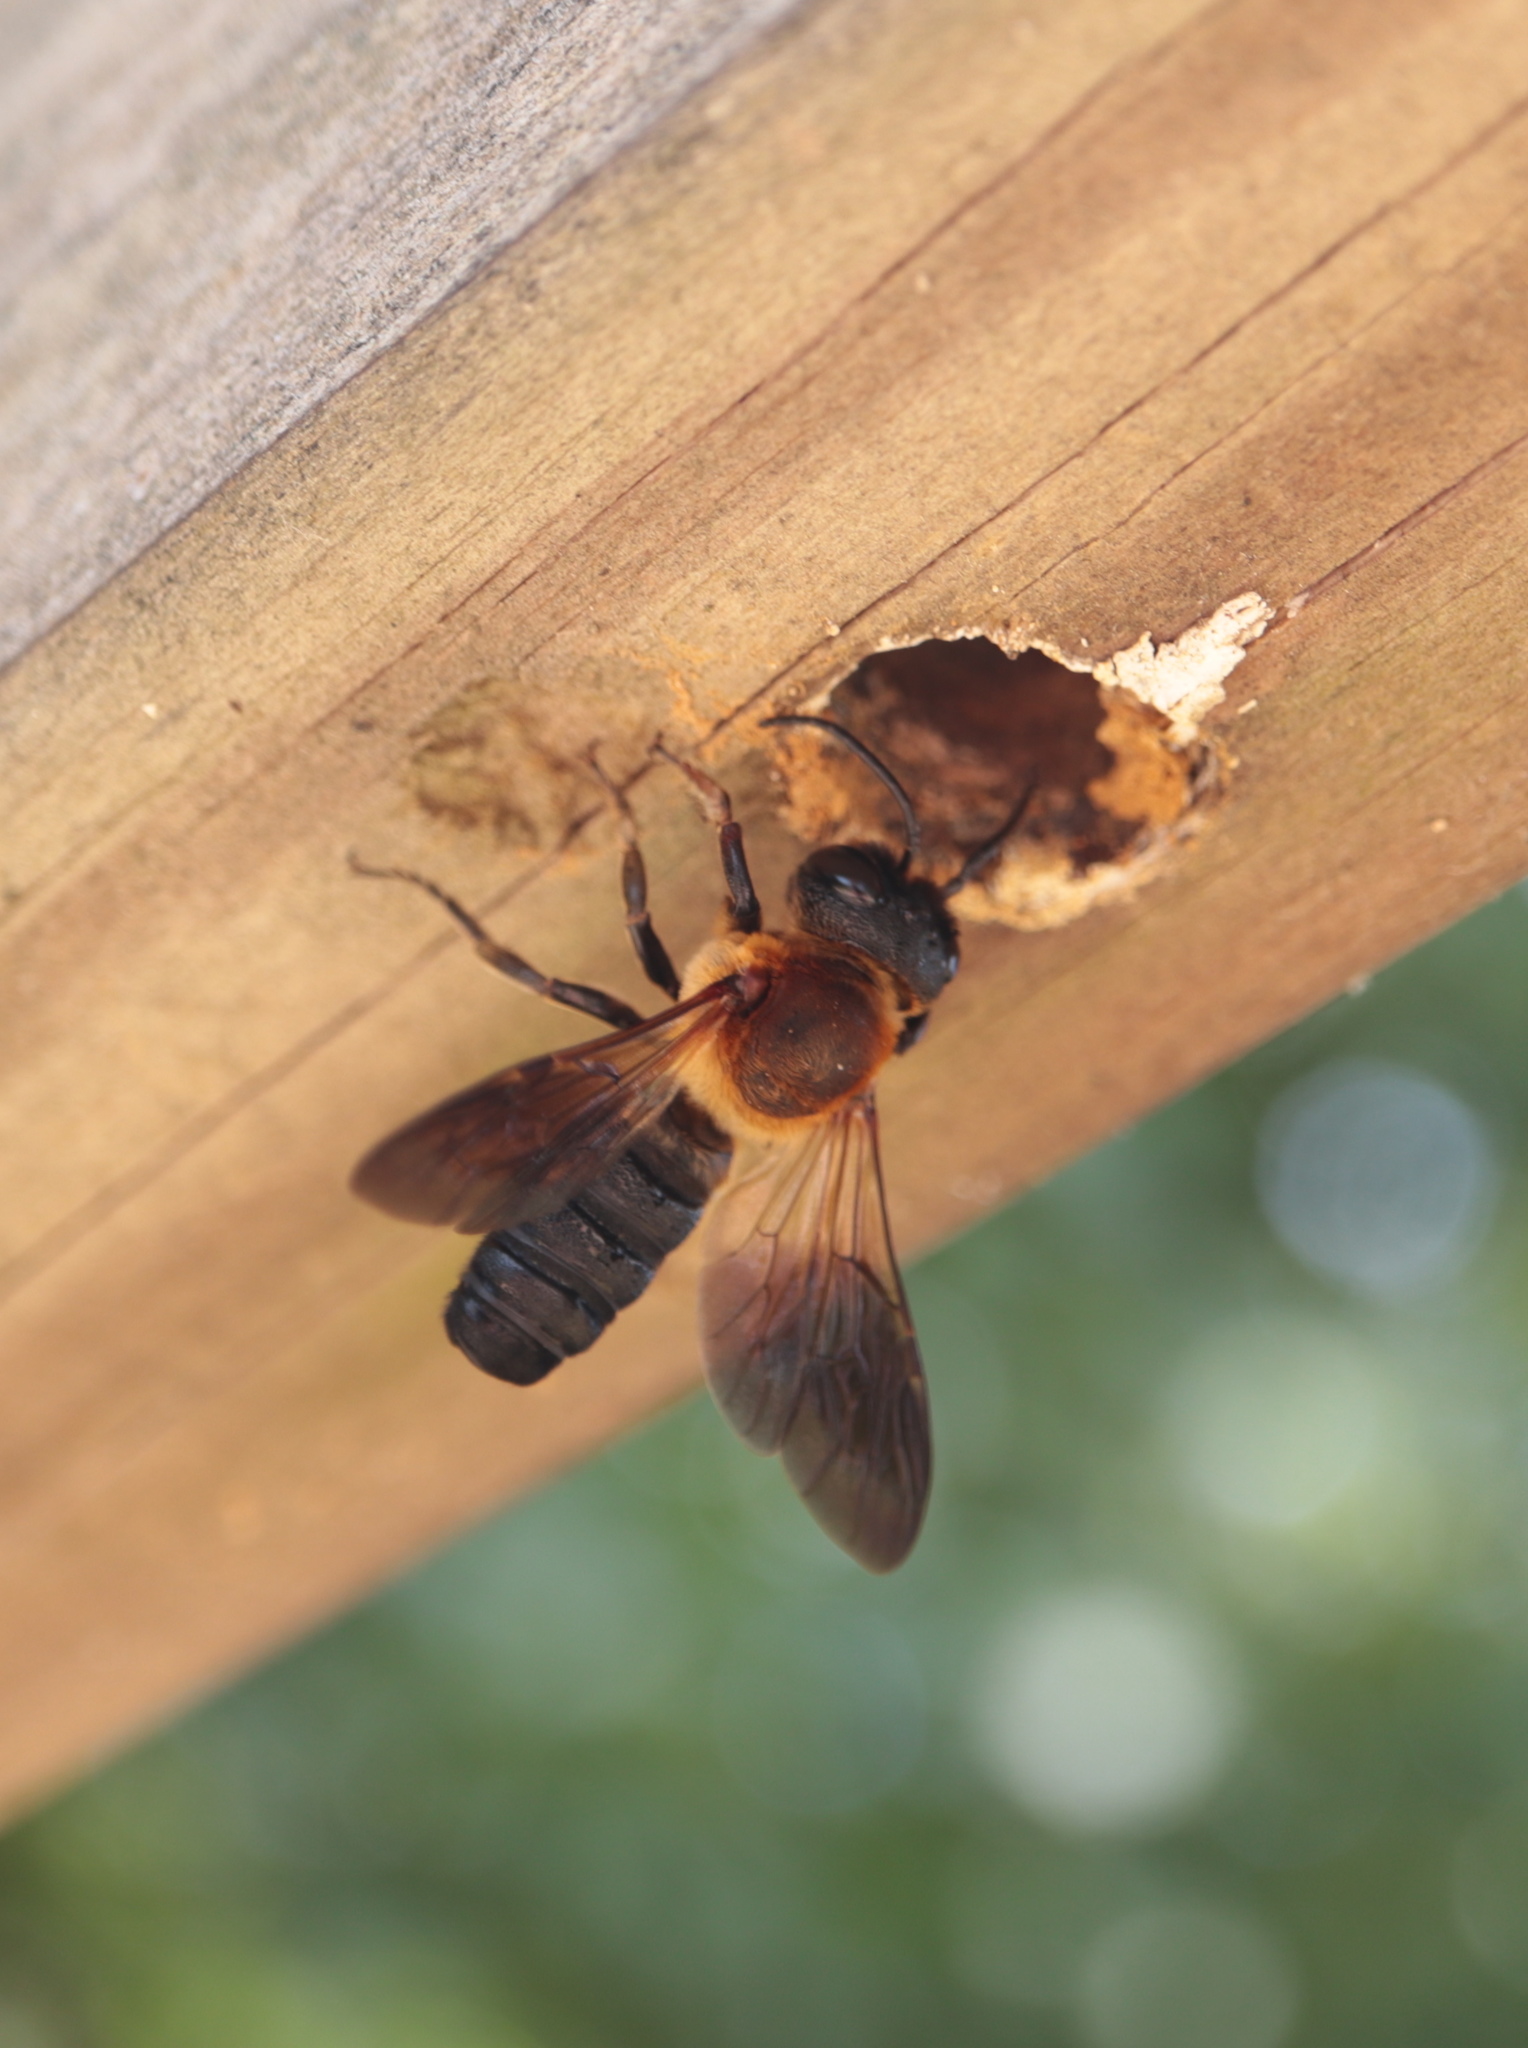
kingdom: Animalia
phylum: Arthropoda
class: Insecta
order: Hymenoptera
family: Megachilidae
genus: Megachile
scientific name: Megachile sculpturalis
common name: Sculptured resin bee
